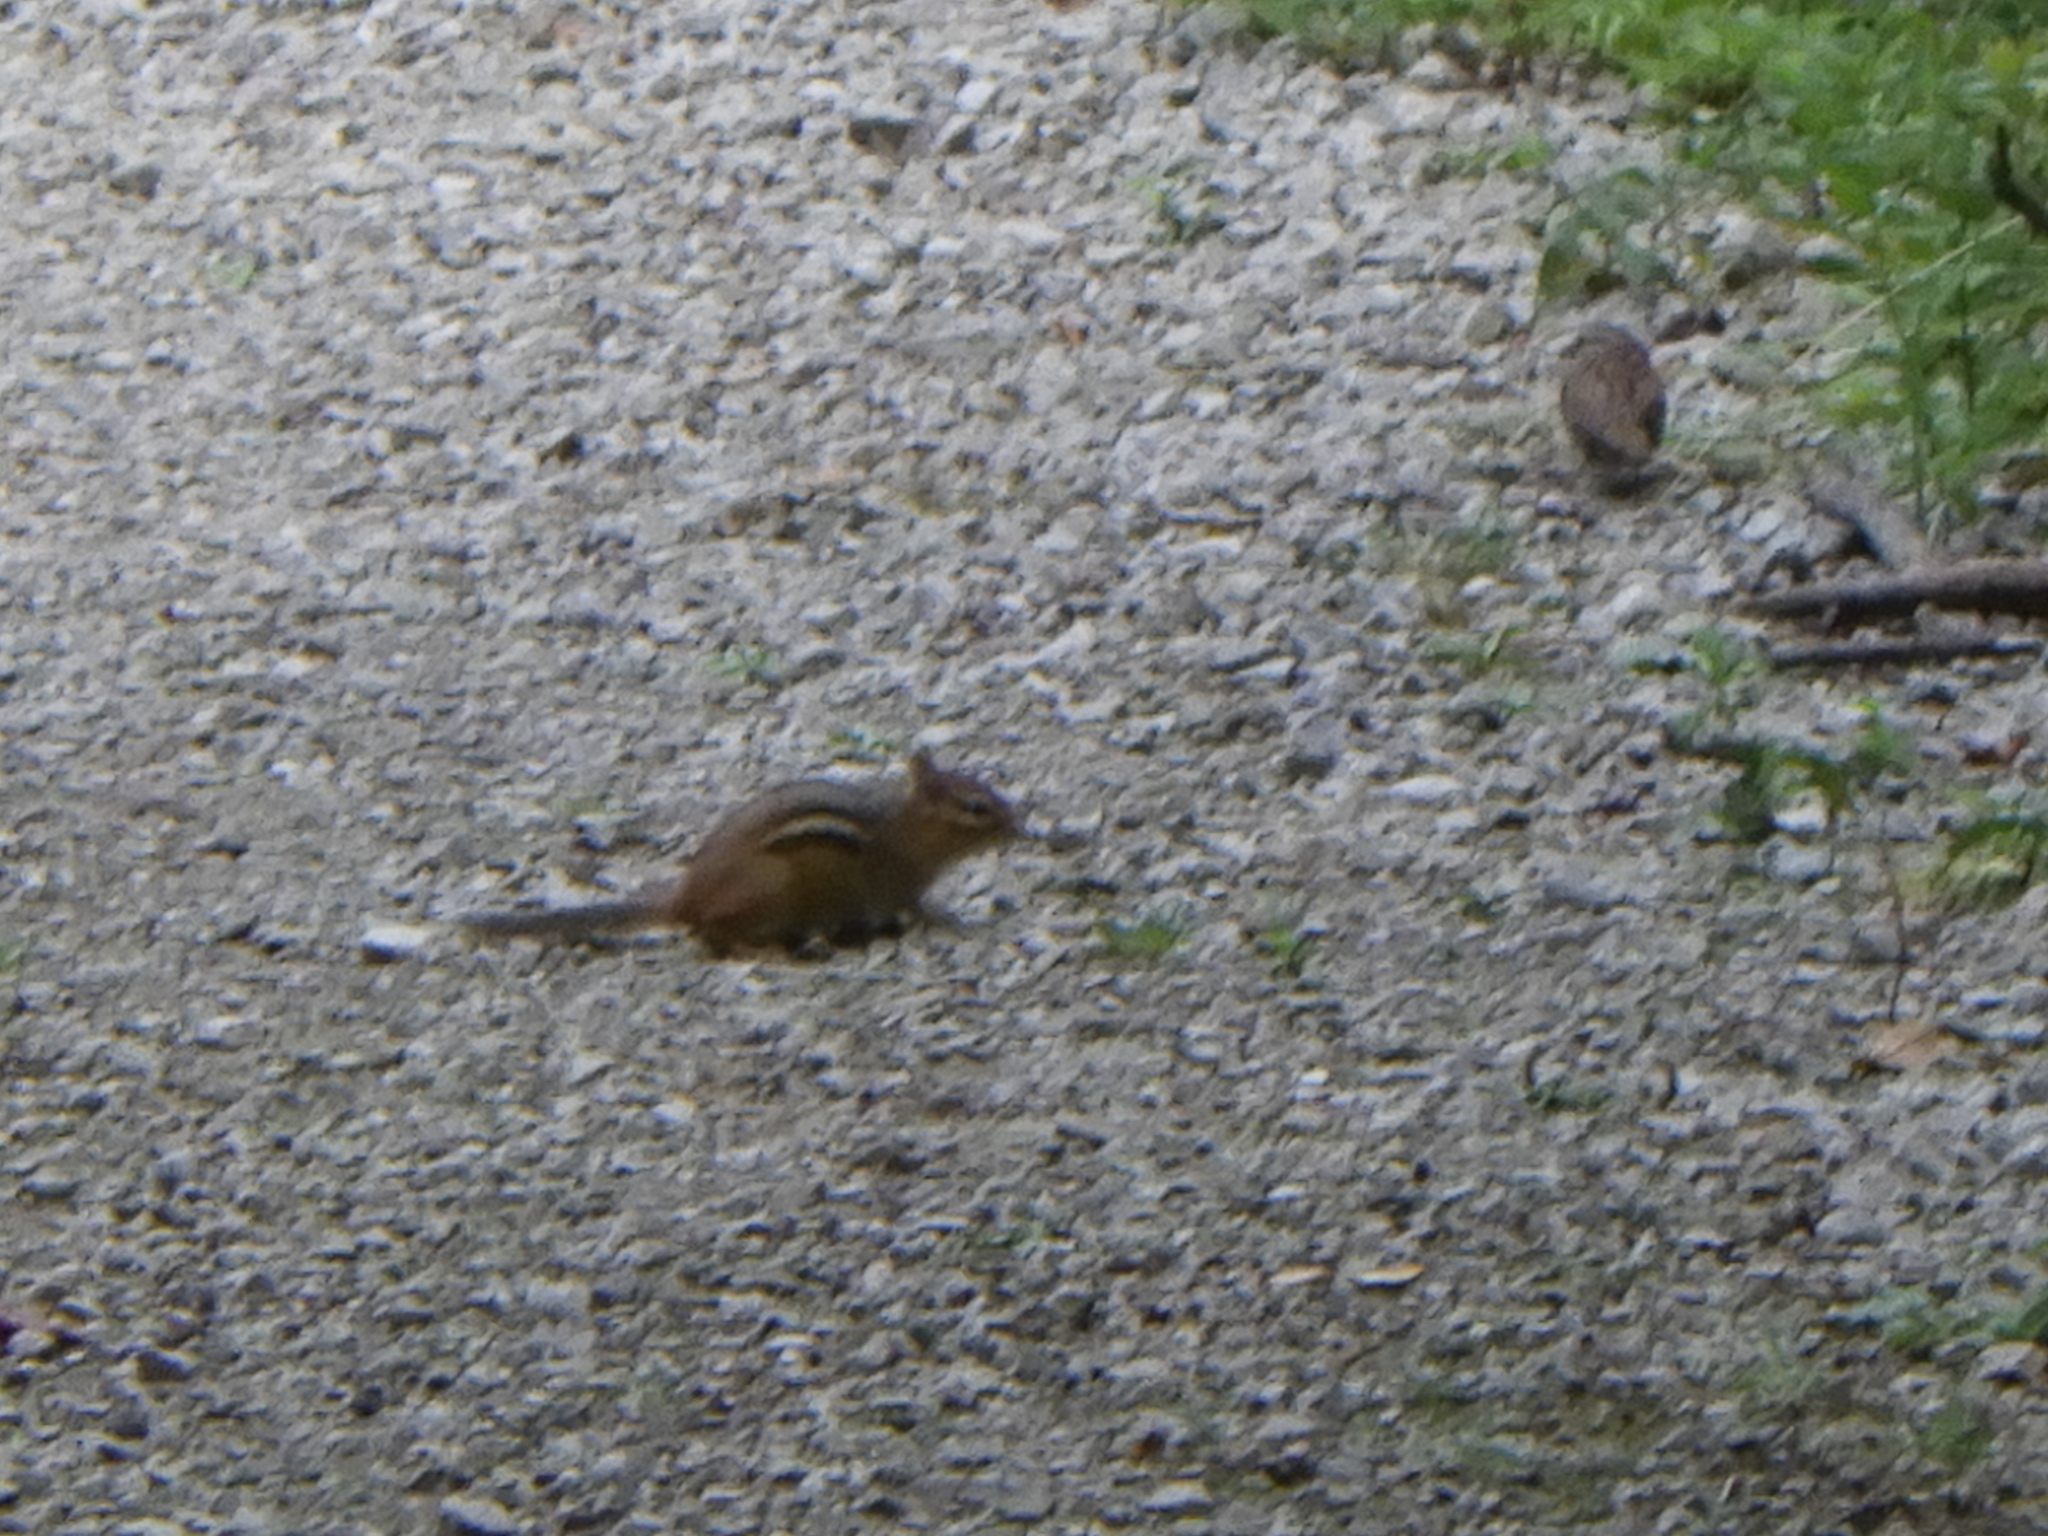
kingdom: Animalia
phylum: Chordata
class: Mammalia
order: Rodentia
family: Sciuridae
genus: Tamias
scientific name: Tamias striatus
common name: Eastern chipmunk
